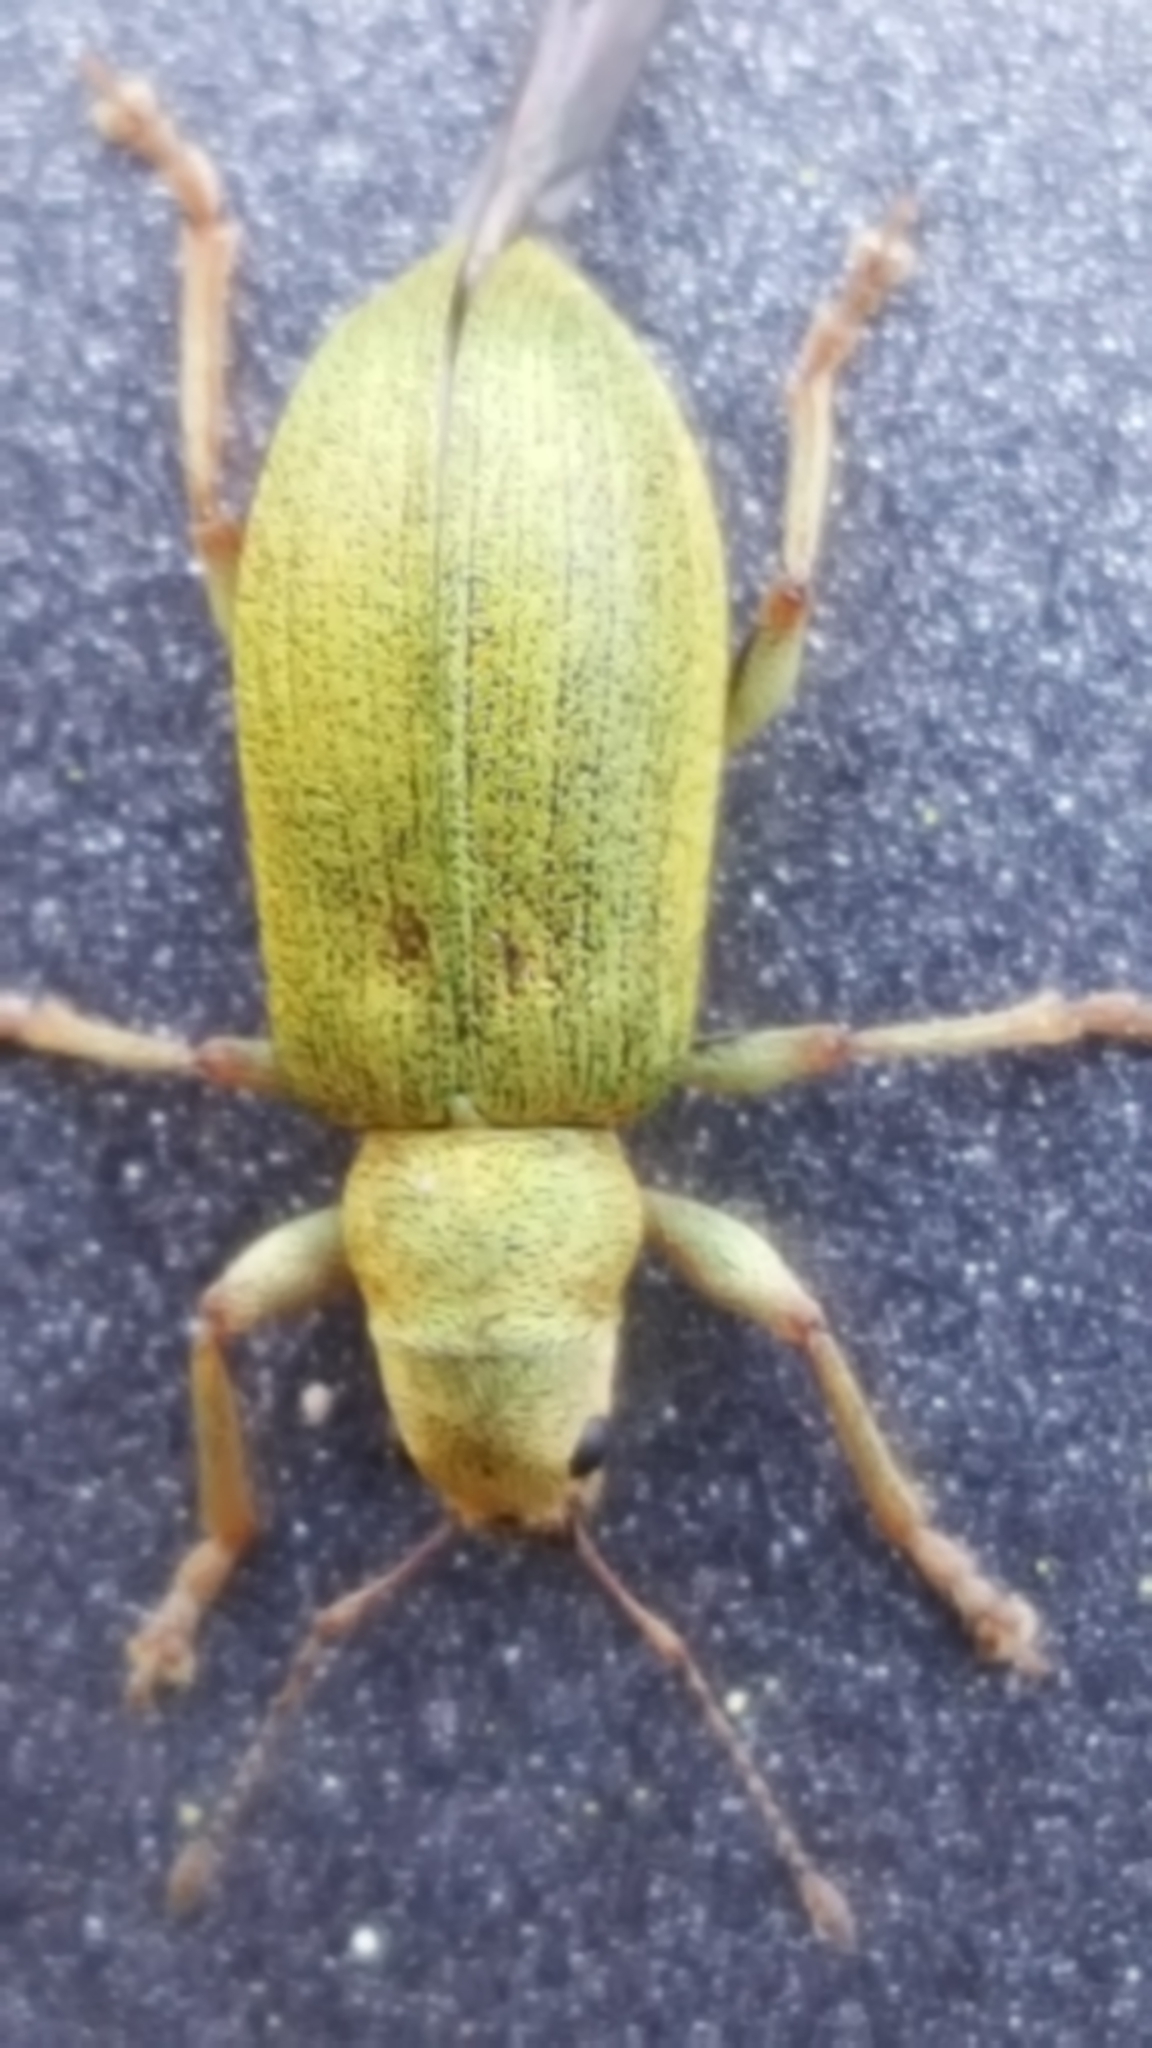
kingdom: Animalia
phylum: Arthropoda
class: Insecta
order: Coleoptera
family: Curculionidae
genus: Pachyrhinus
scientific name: Pachyrhinus lethierryi
